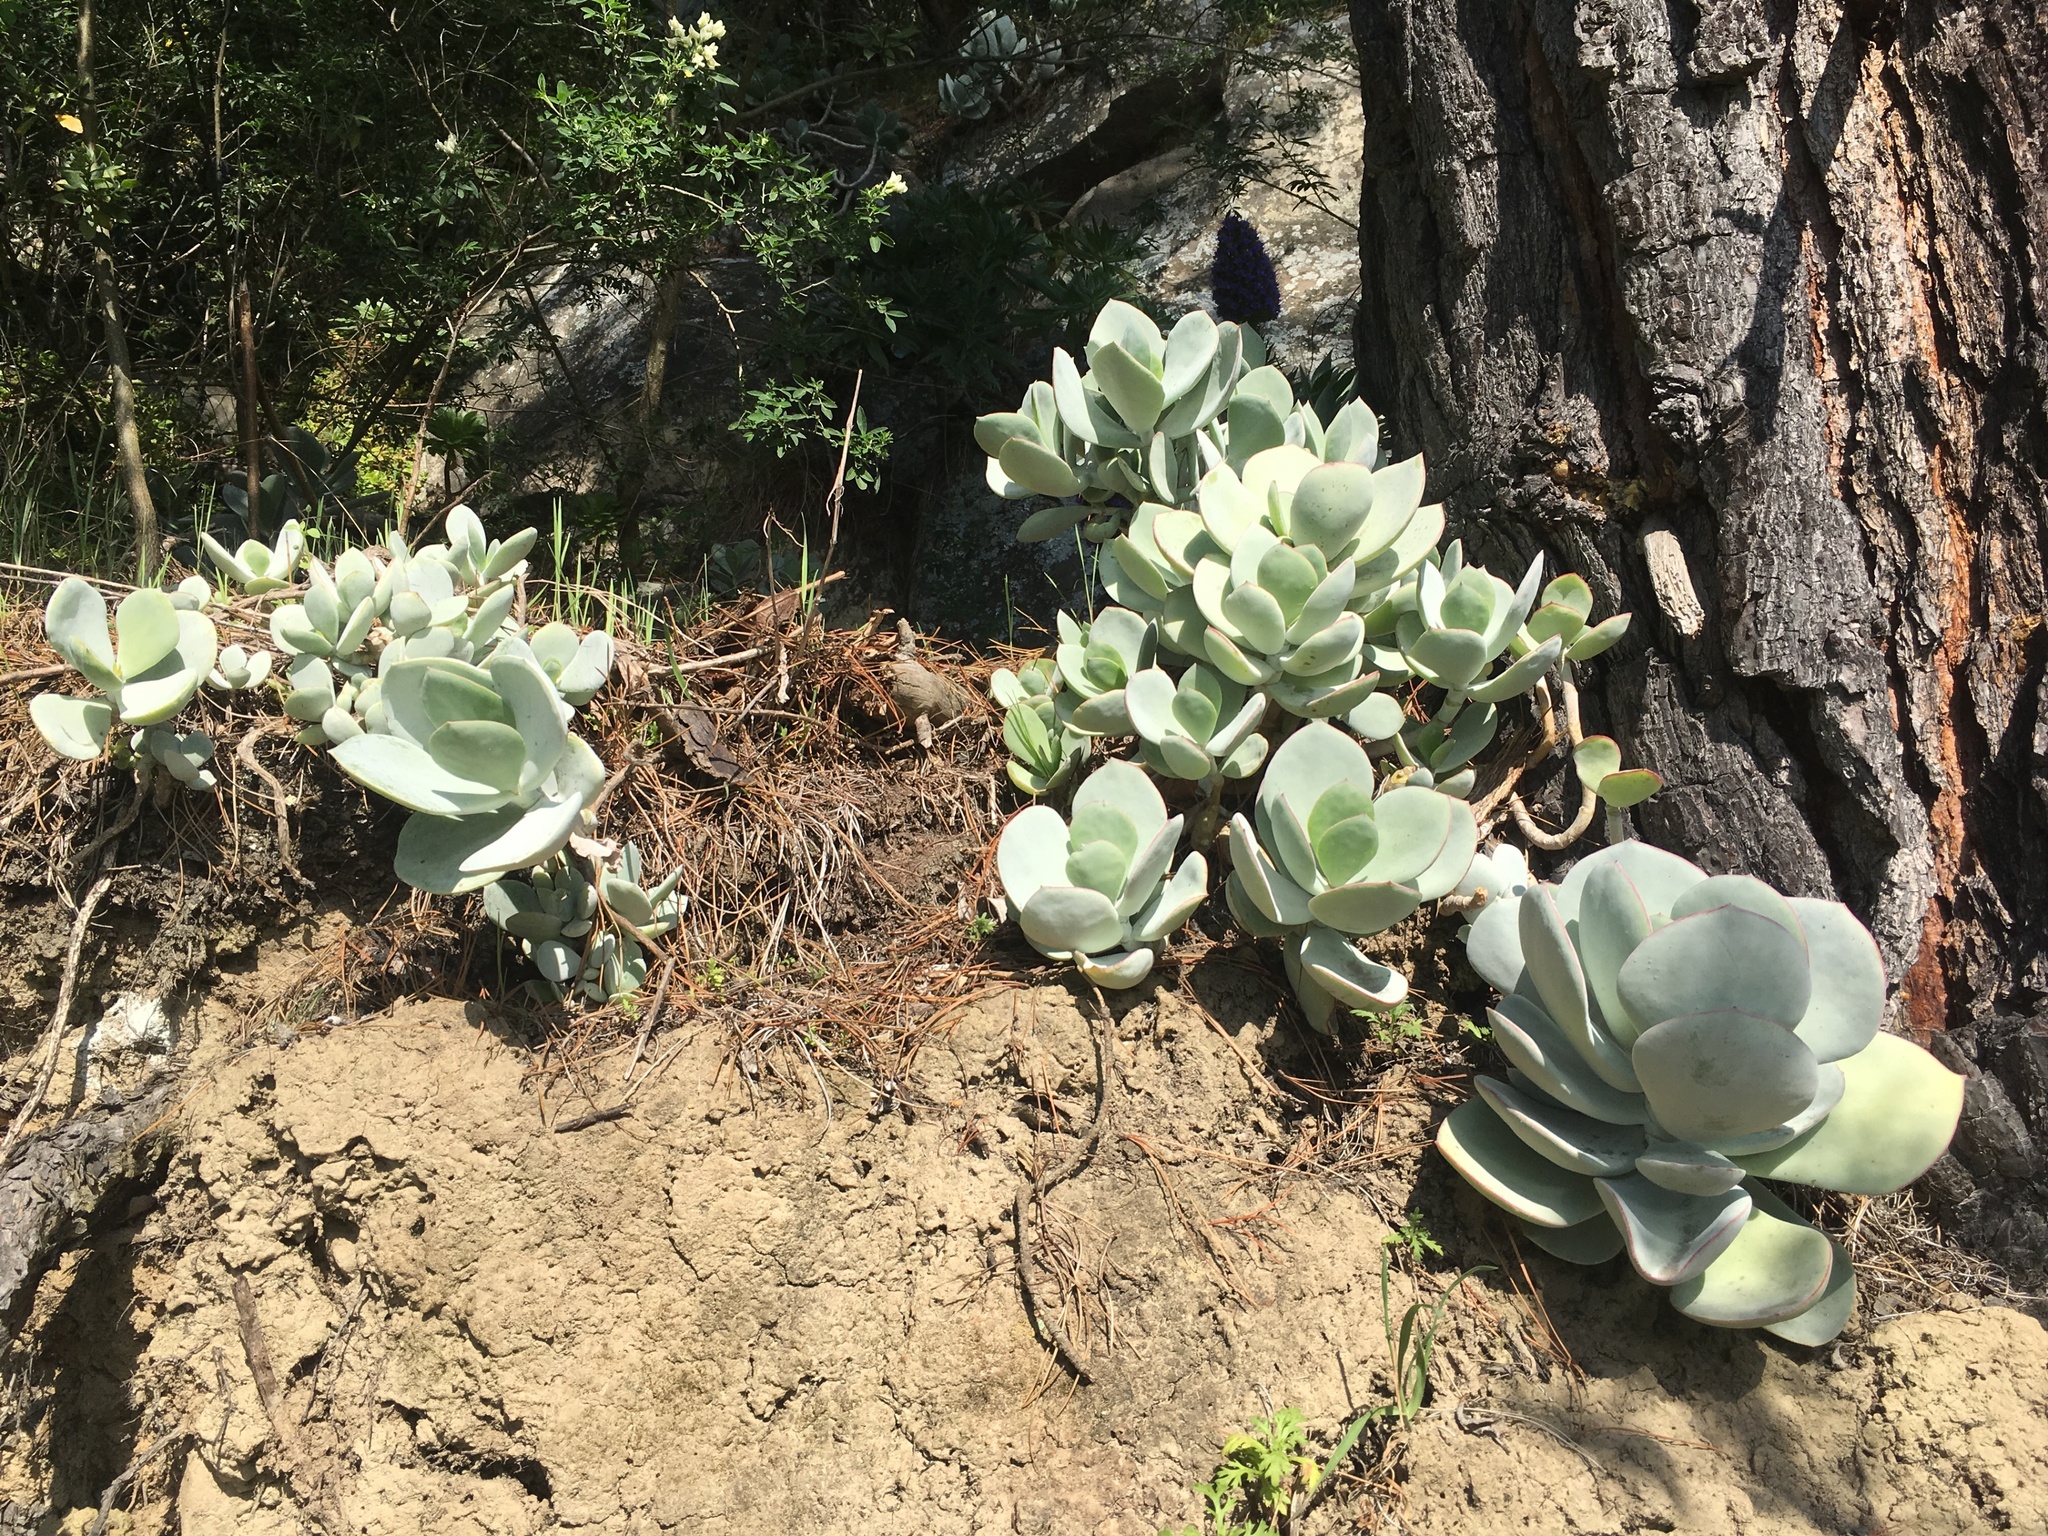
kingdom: Plantae
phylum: Tracheophyta
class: Magnoliopsida
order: Saxifragales
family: Crassulaceae
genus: Cotyledon
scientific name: Cotyledon orbiculata
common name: Pig's ear
